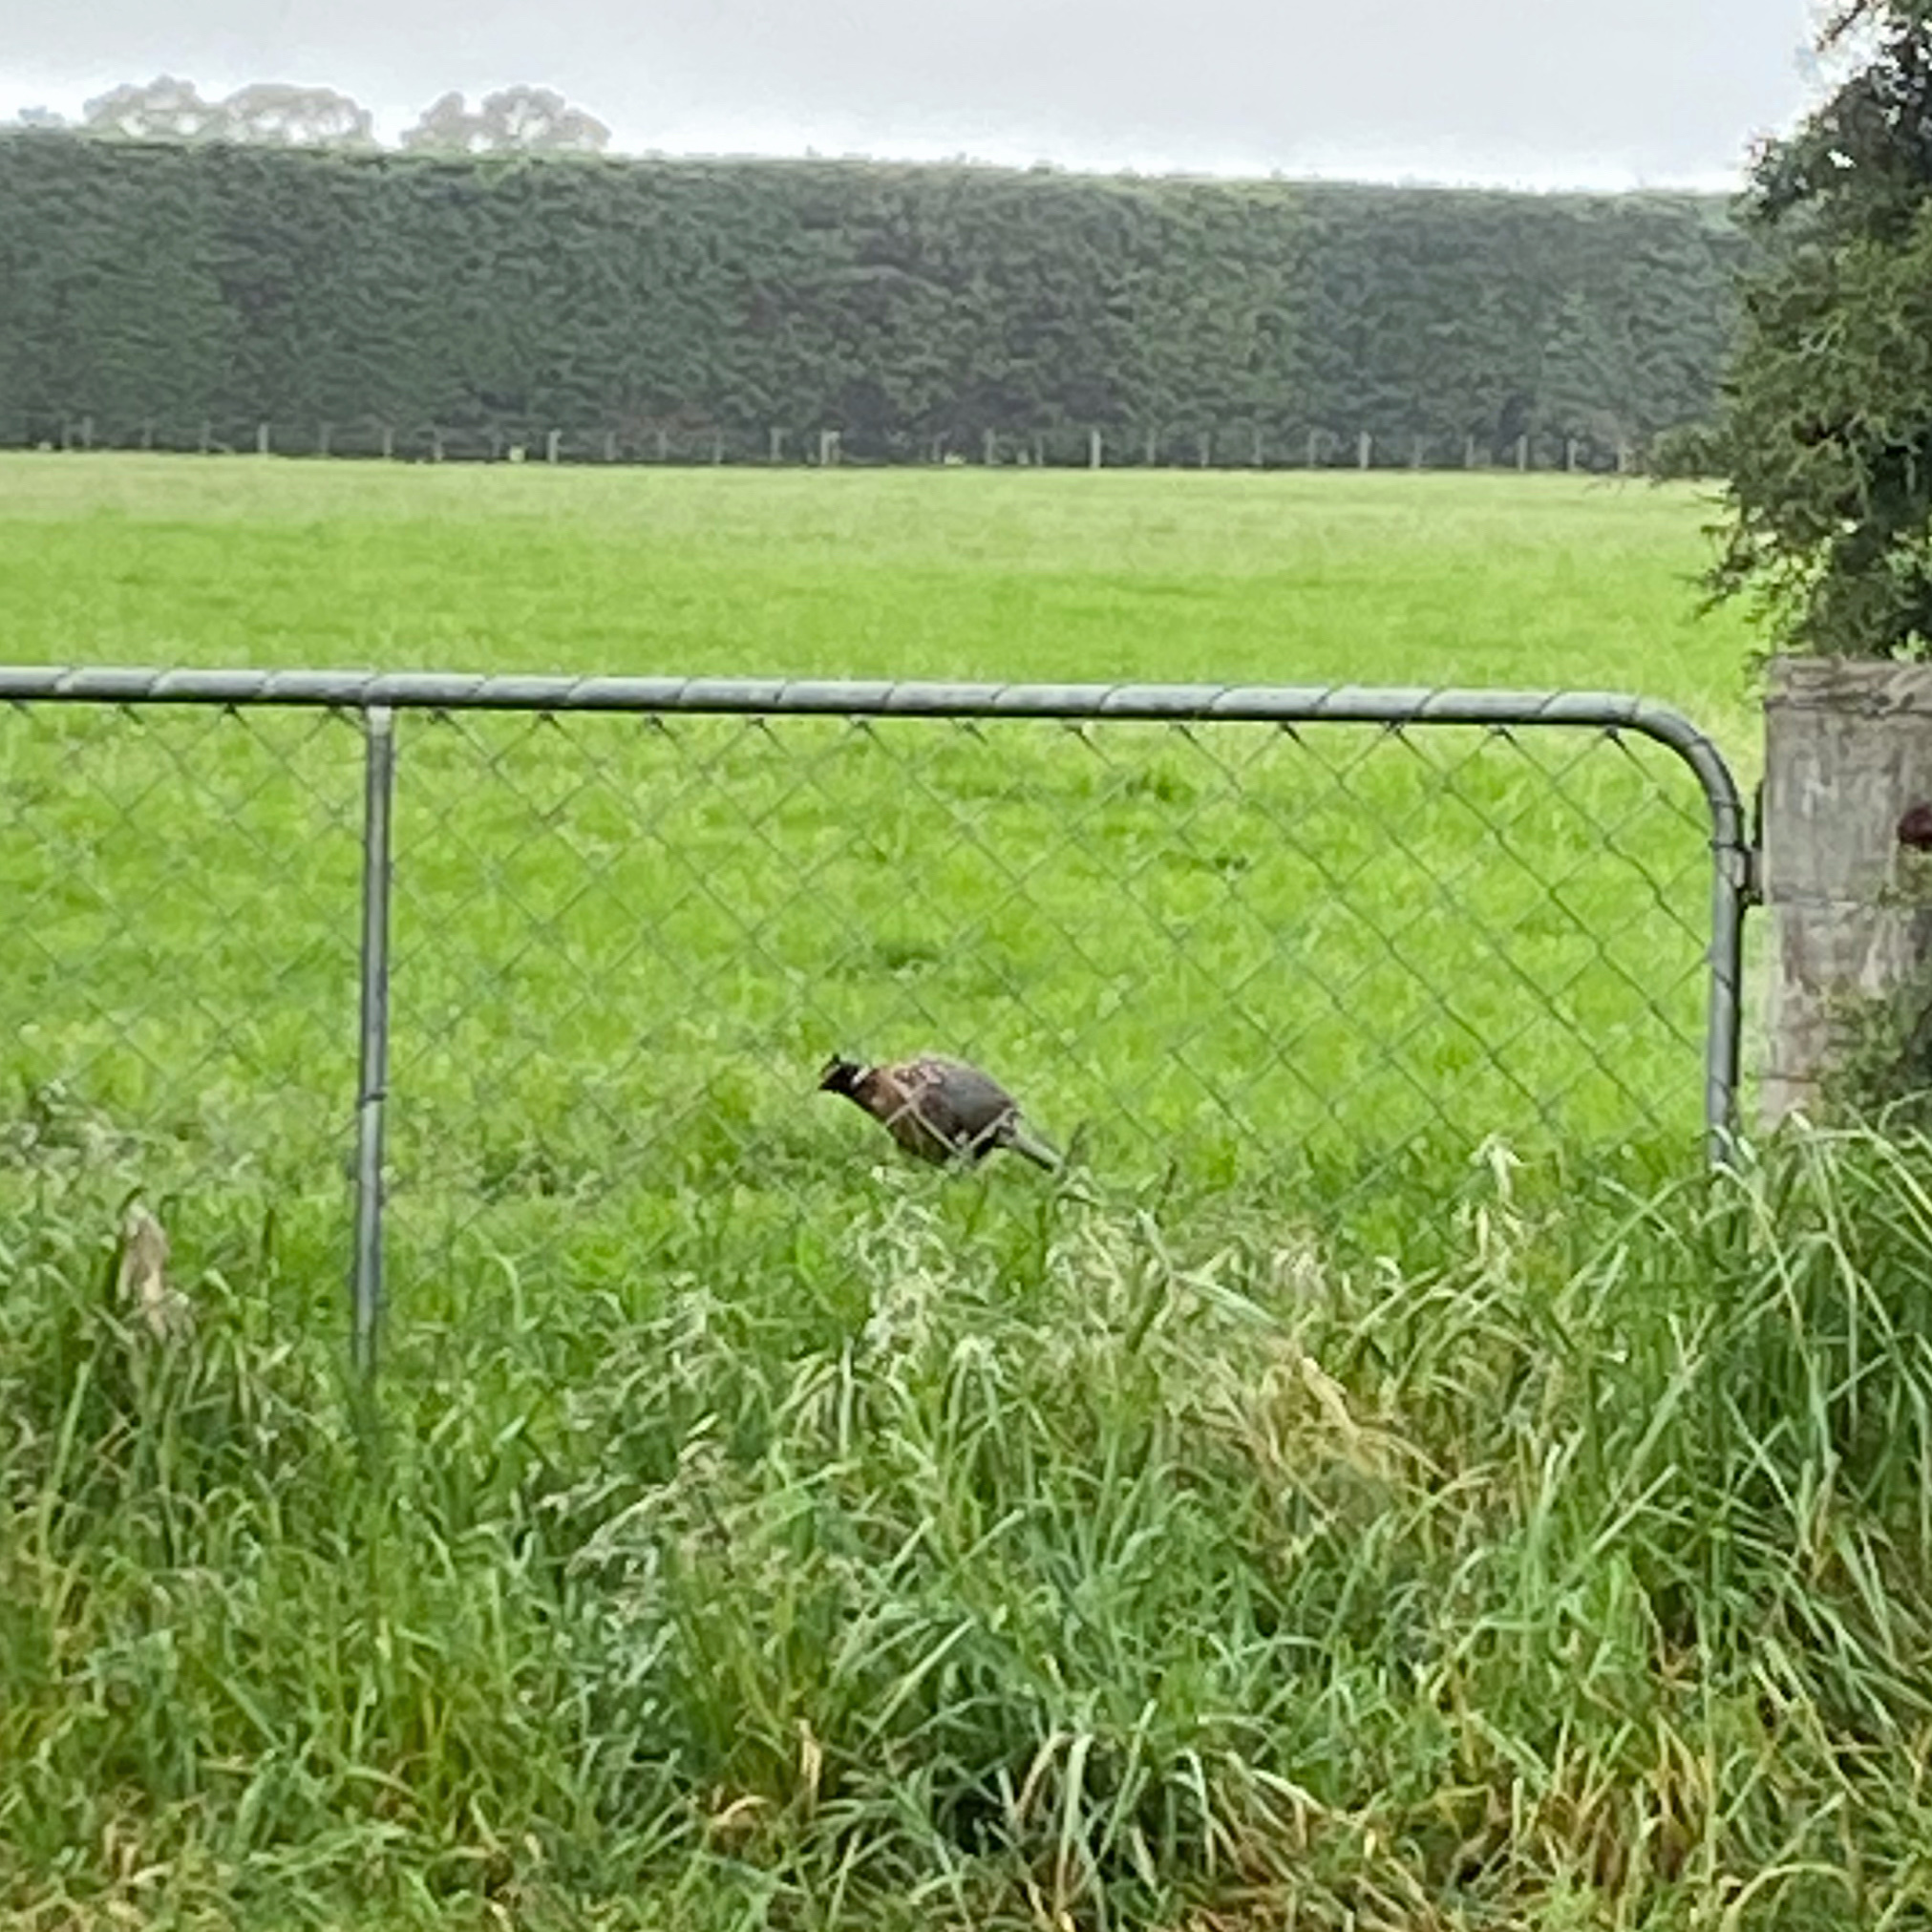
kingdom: Animalia
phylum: Chordata
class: Aves
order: Galliformes
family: Phasianidae
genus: Phasianus
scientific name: Phasianus colchicus
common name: Common pheasant
